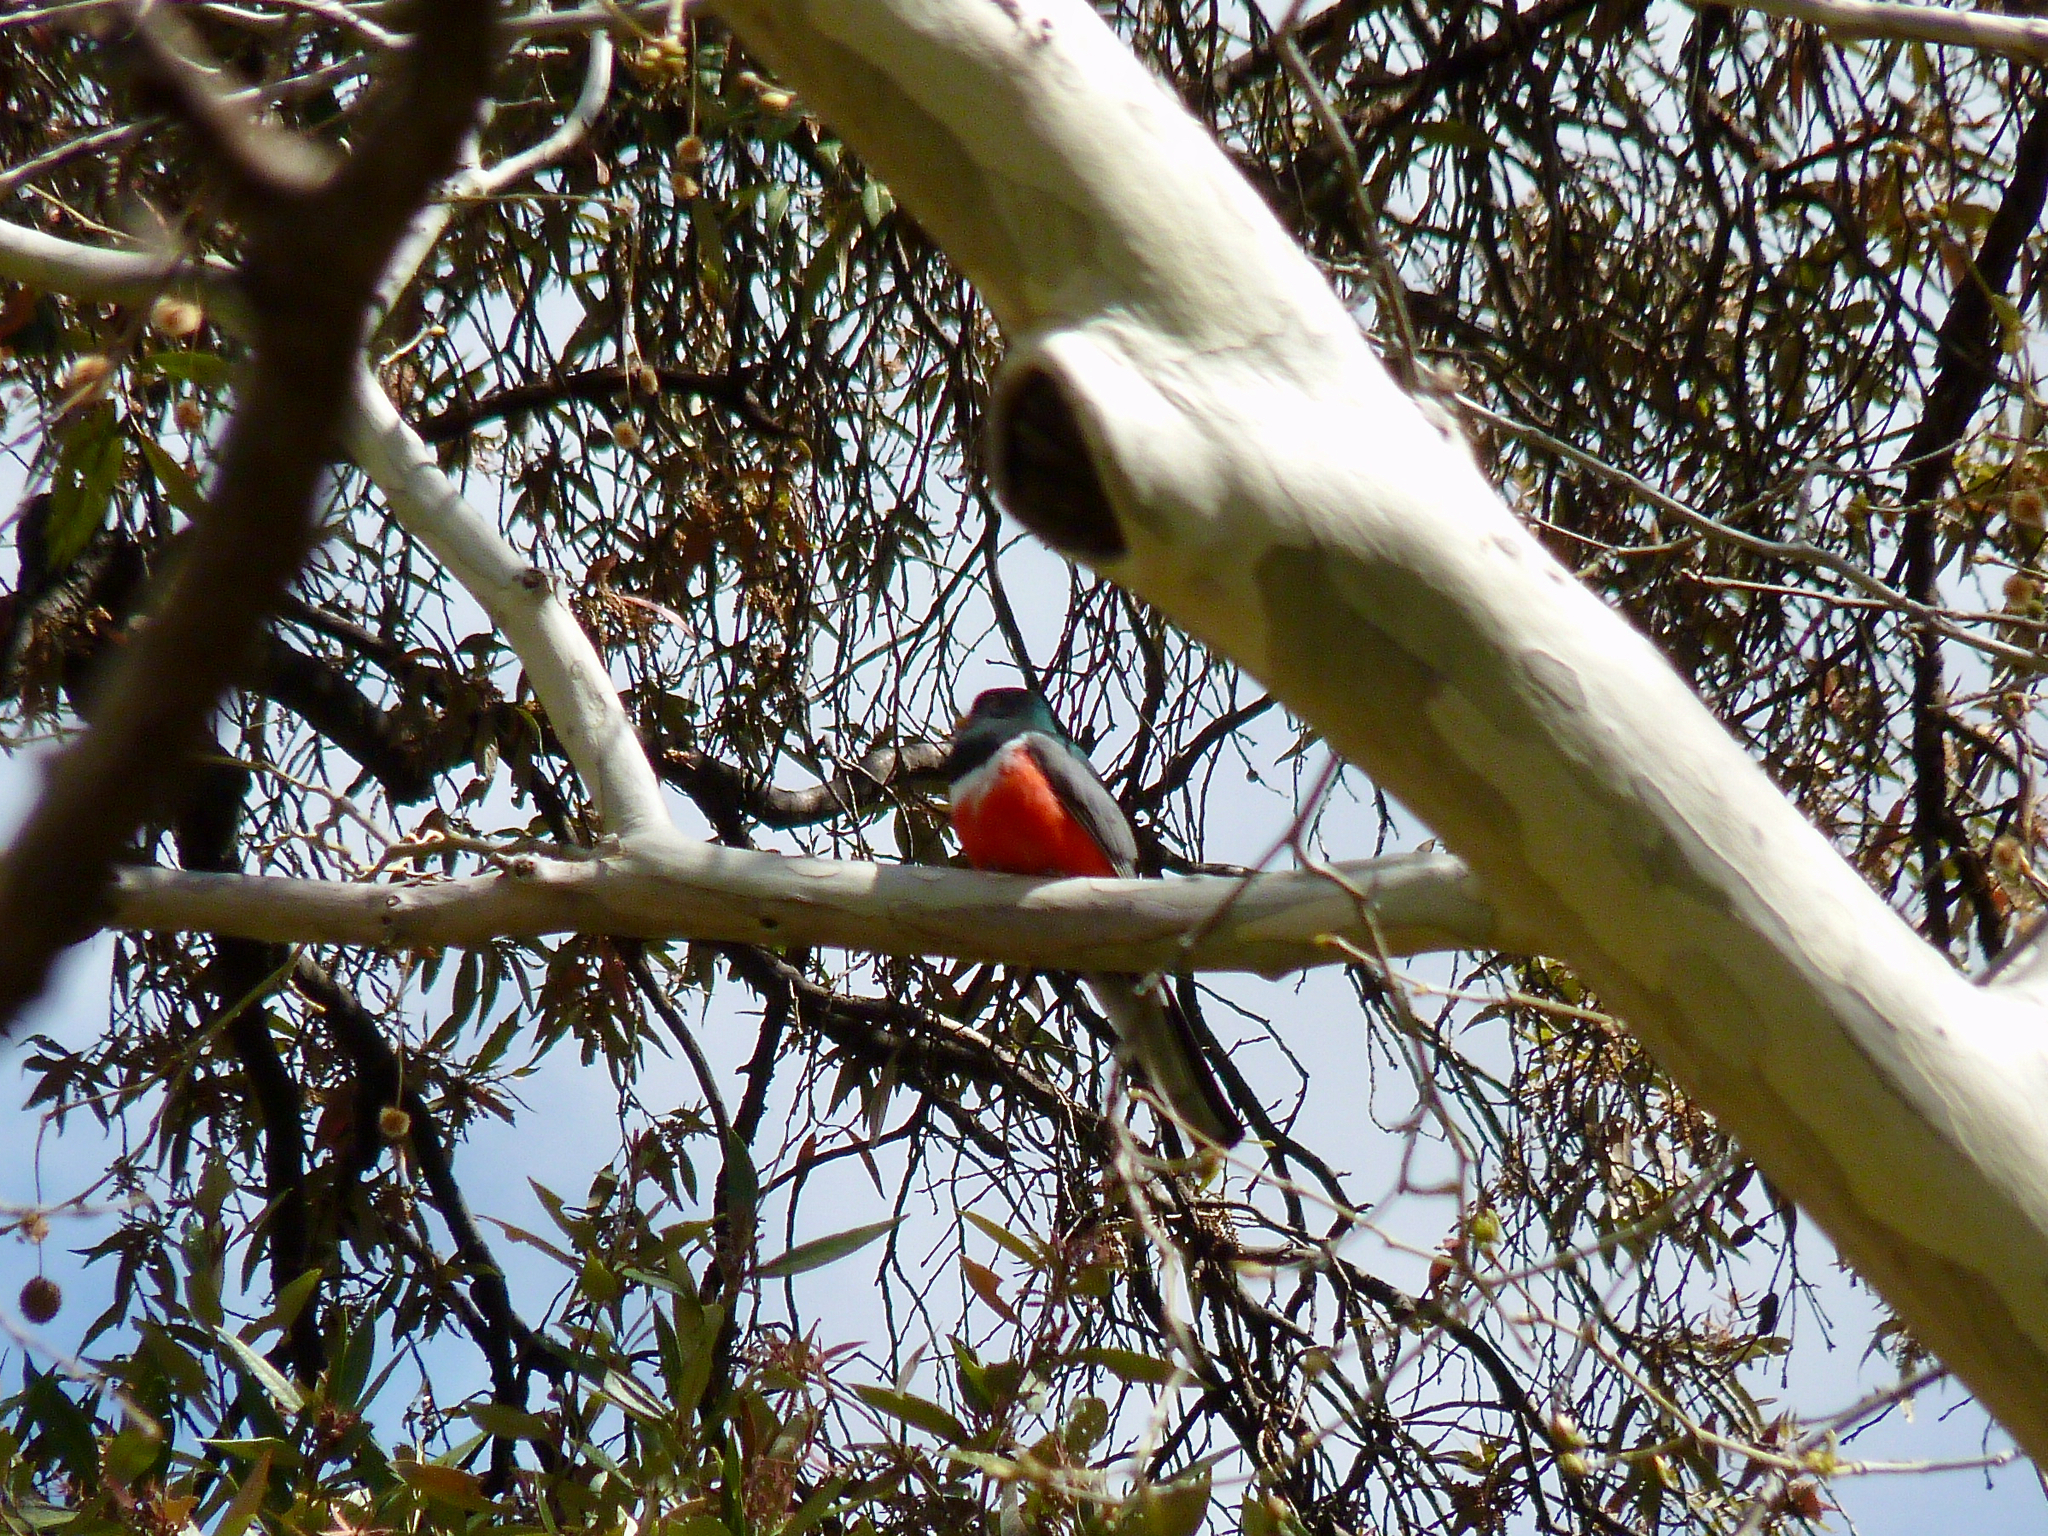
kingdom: Animalia
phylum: Chordata
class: Aves
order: Trogoniformes
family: Trogonidae
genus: Trogon
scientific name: Trogon elegans
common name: Elegant trogon
